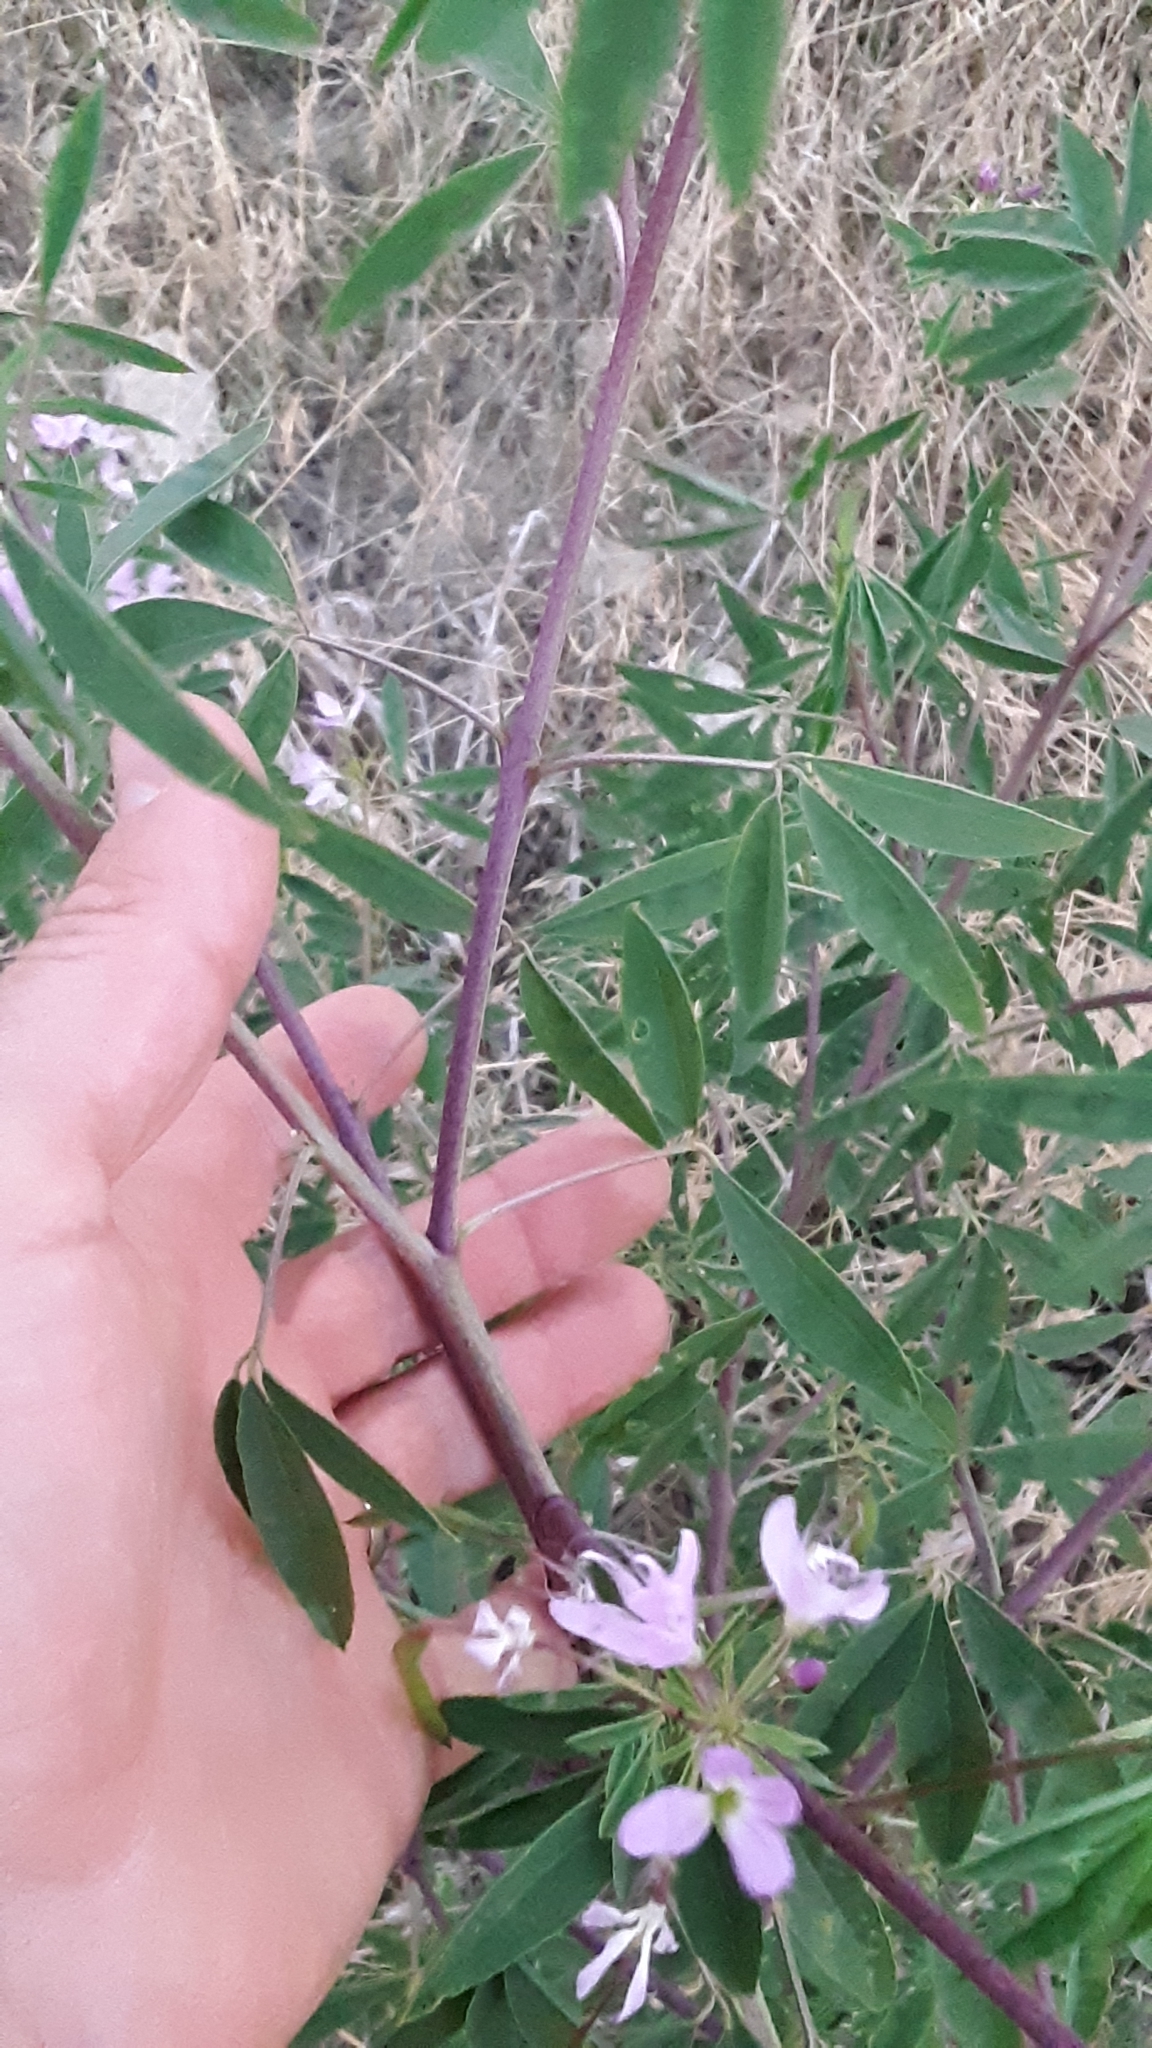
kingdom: Plantae
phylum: Tracheophyta
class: Magnoliopsida
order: Brassicales
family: Cleomaceae
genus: Cleomella
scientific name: Cleomella serrulata
